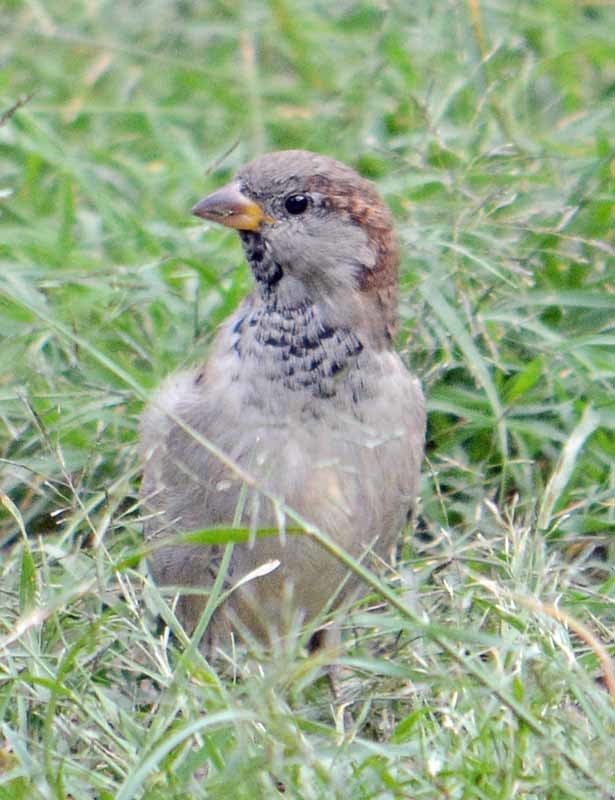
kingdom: Animalia
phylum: Chordata
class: Aves
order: Passeriformes
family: Passeridae
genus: Passer
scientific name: Passer domesticus
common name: House sparrow
